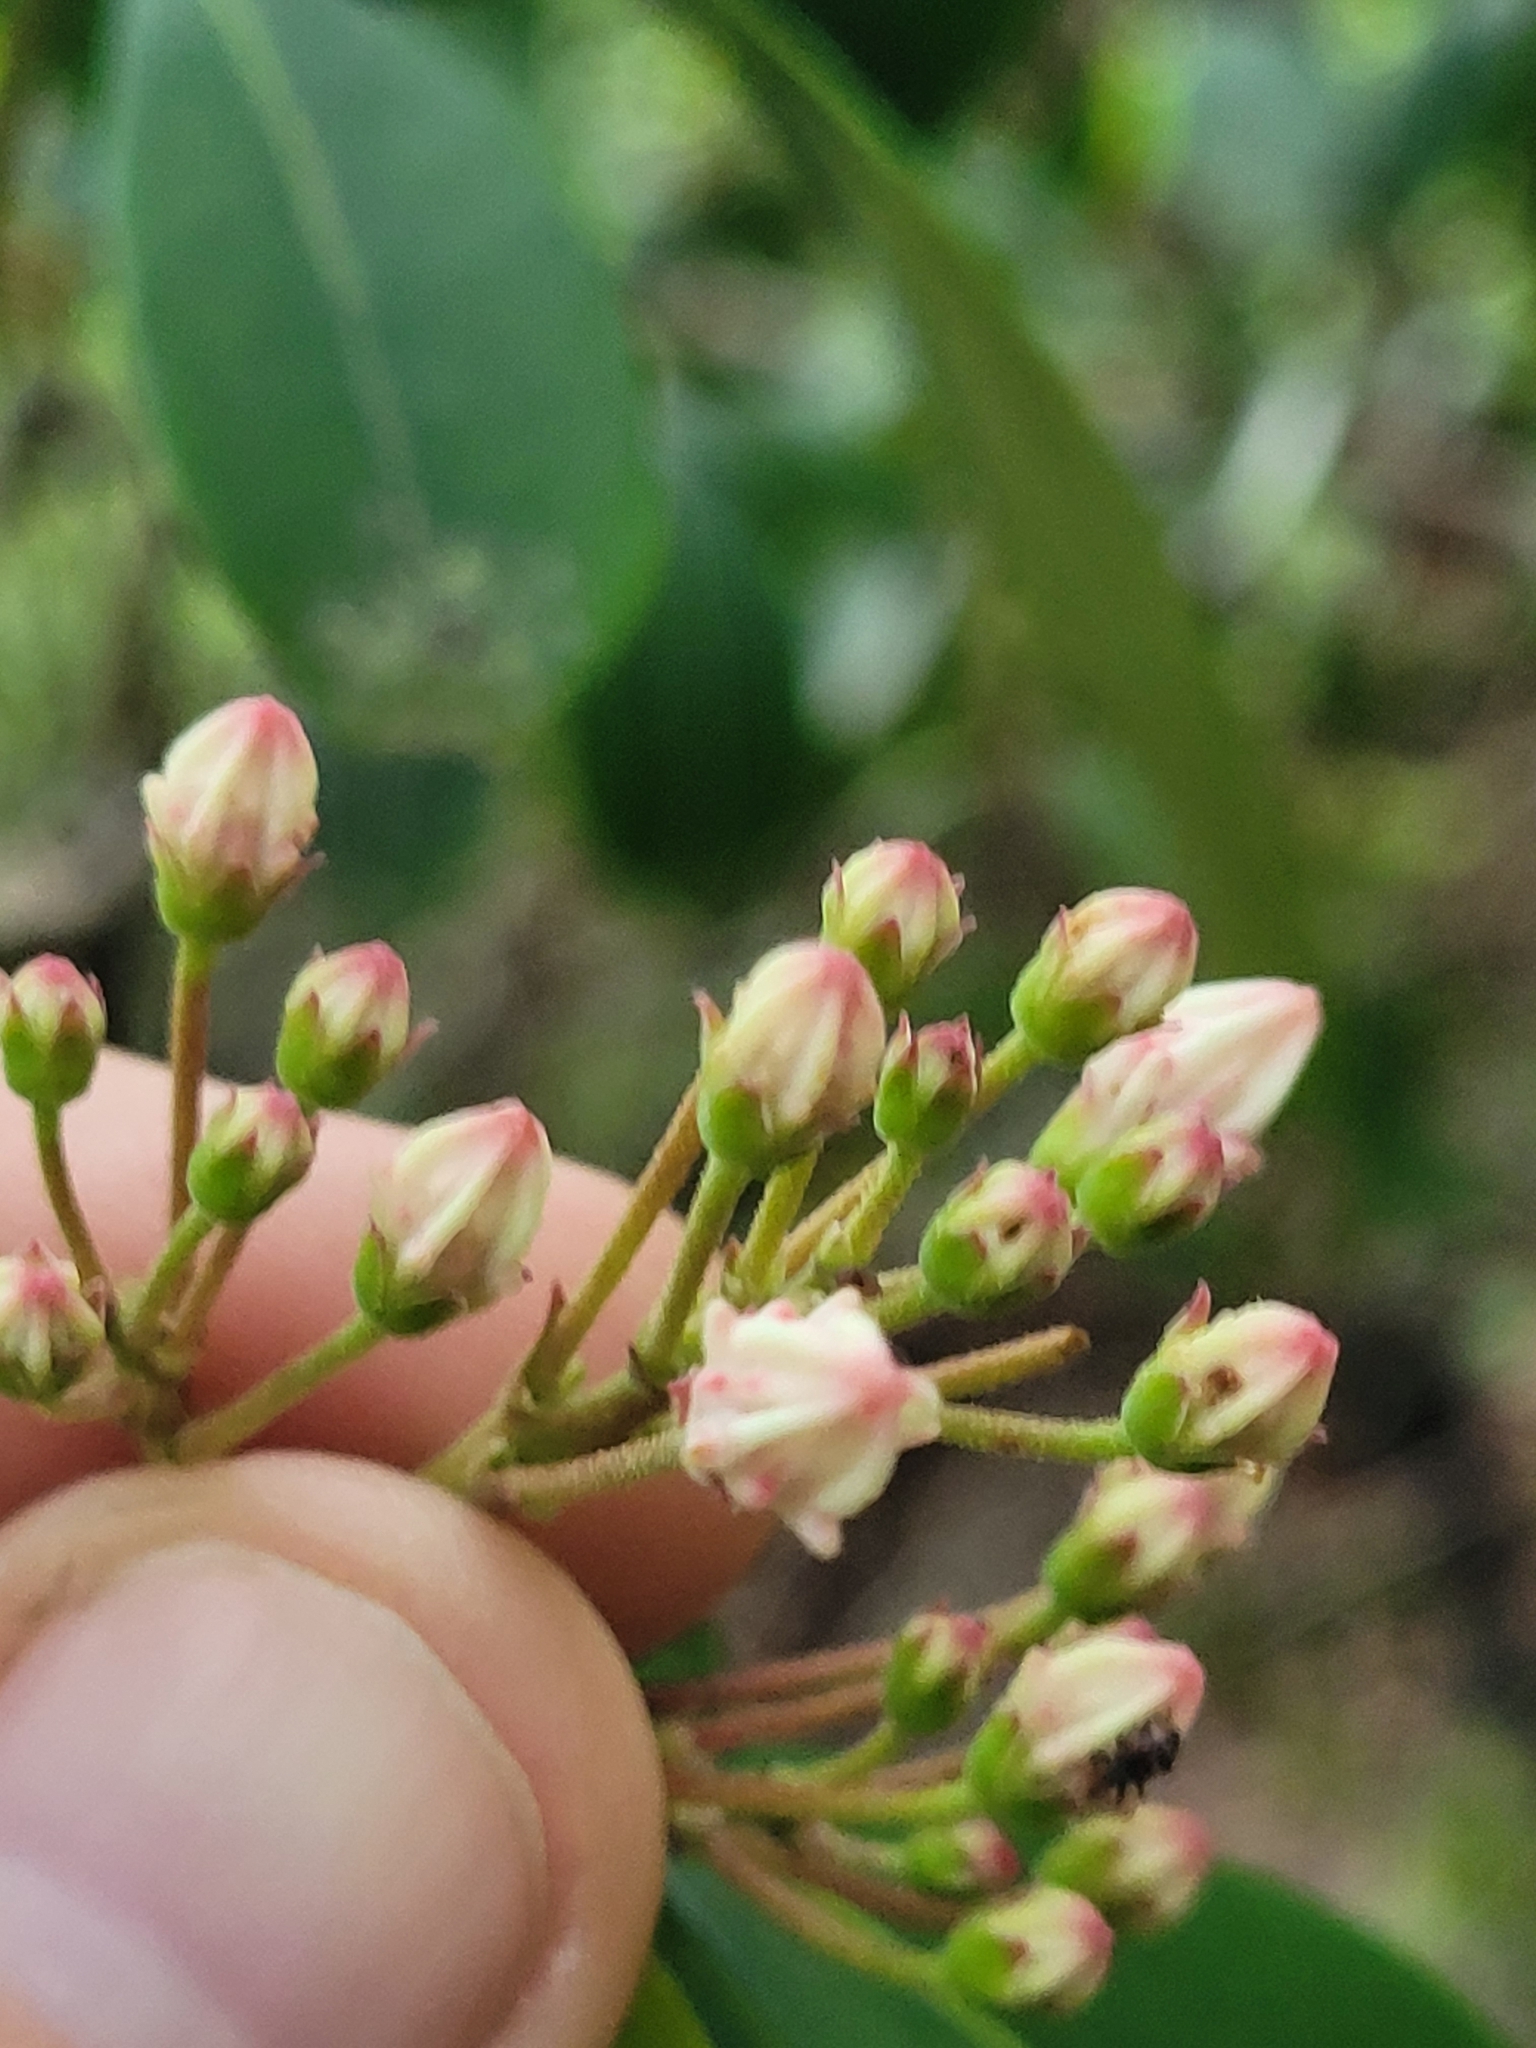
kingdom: Plantae
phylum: Tracheophyta
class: Magnoliopsida
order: Ericales
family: Ericaceae
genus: Kalmia
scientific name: Kalmia latifolia
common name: Mountain-laurel
